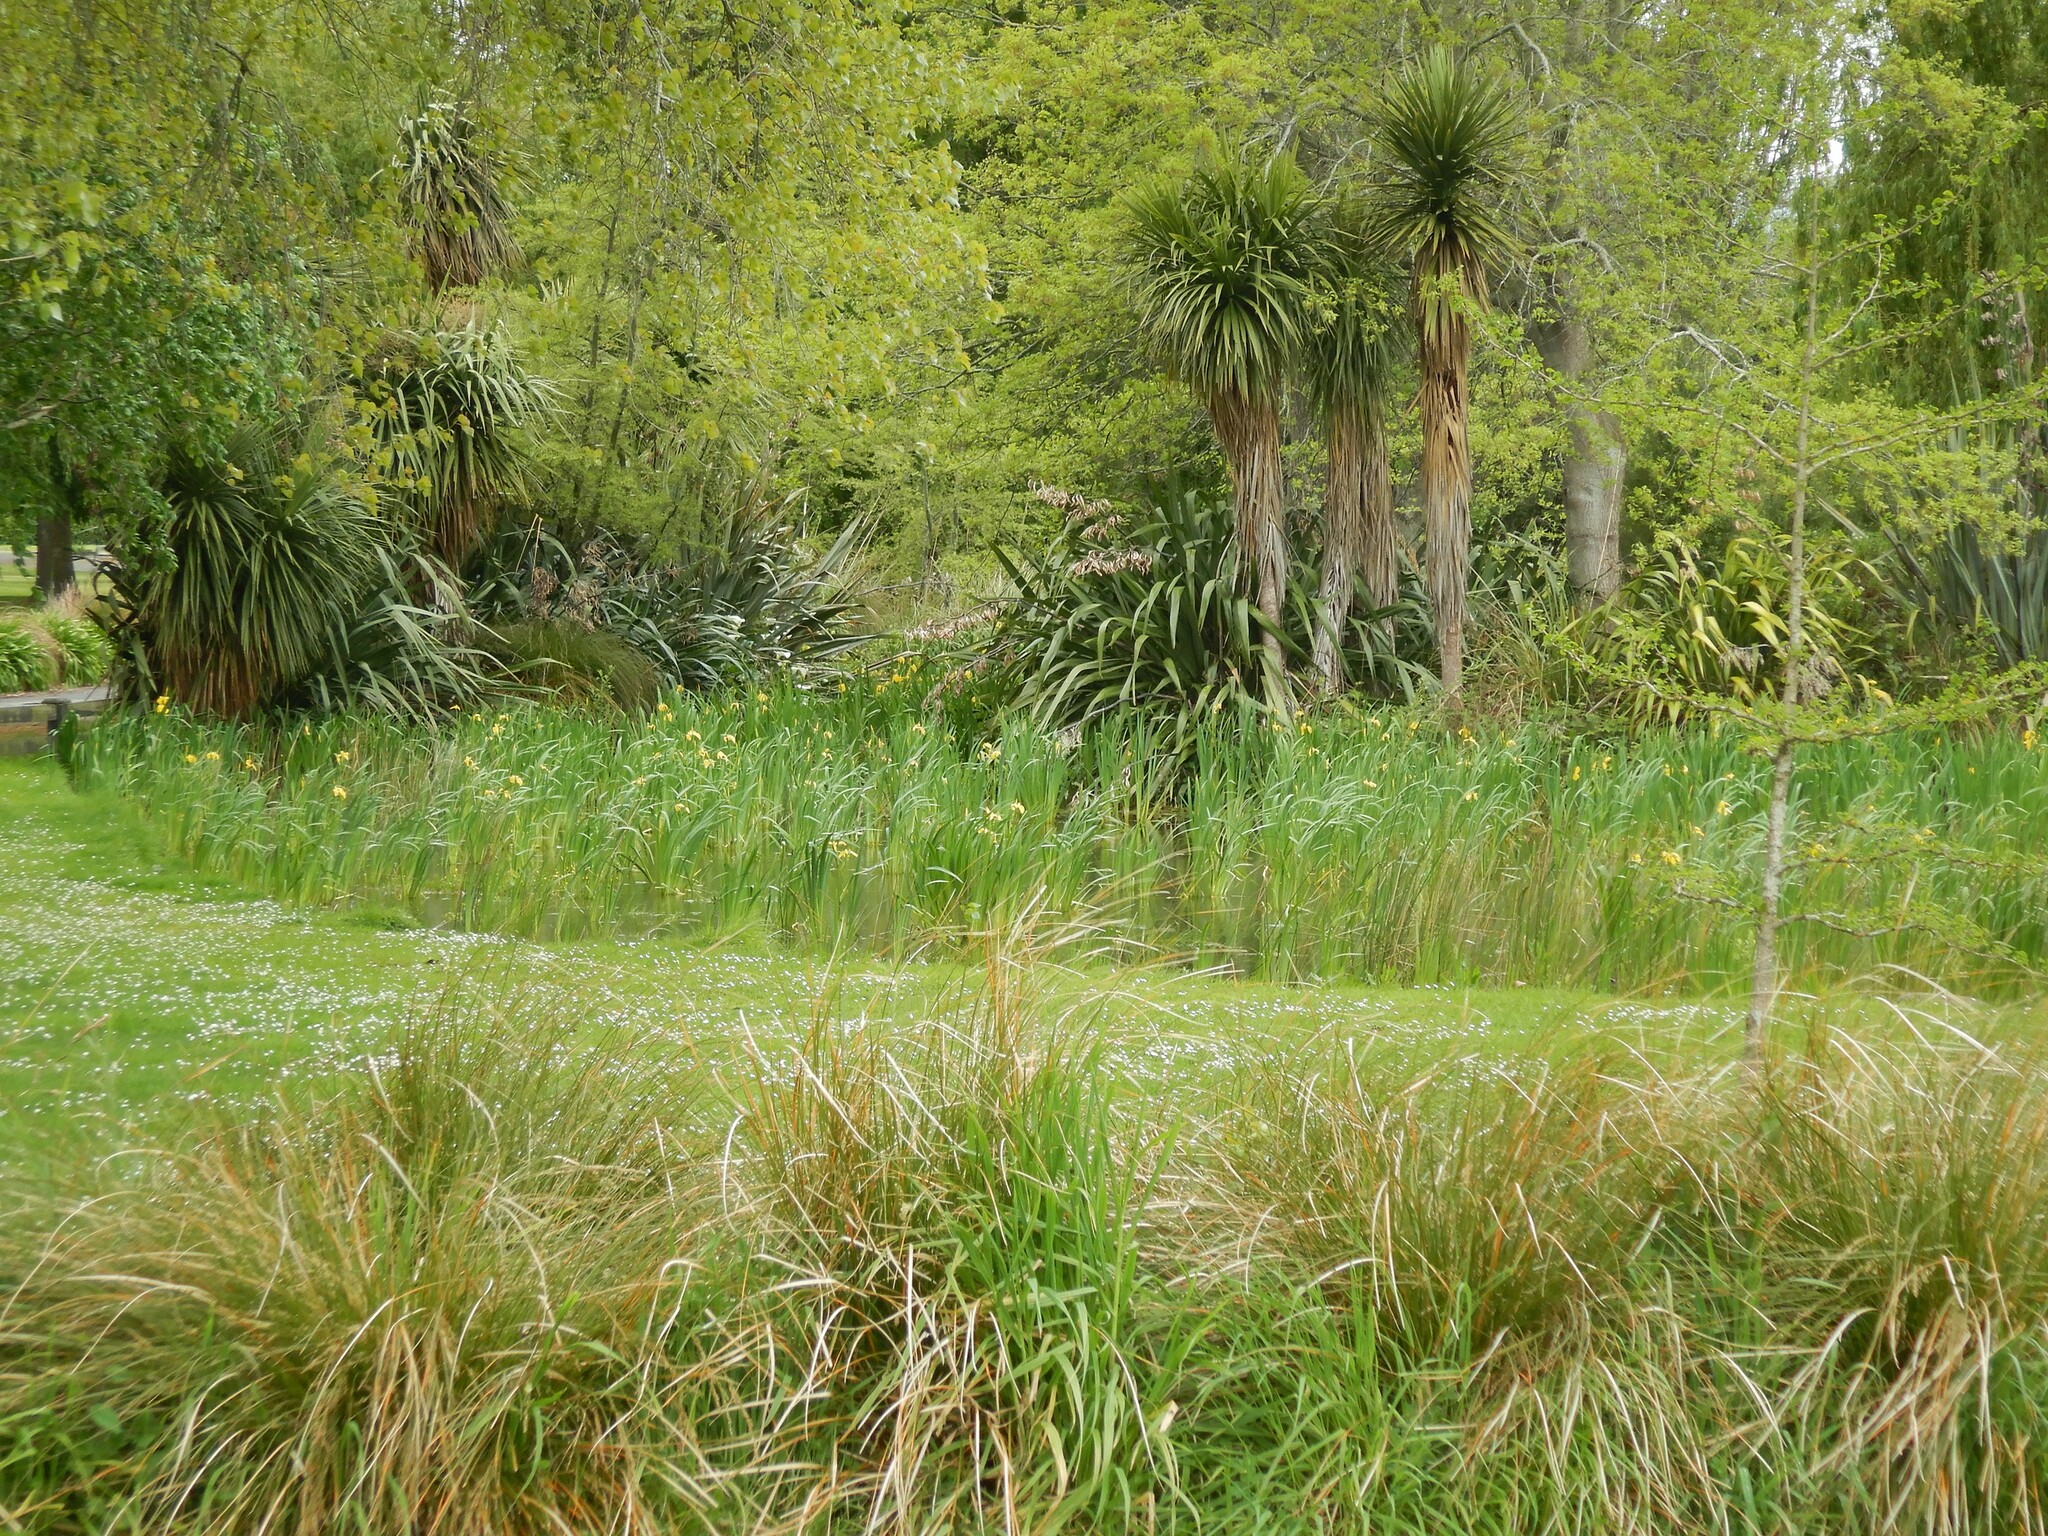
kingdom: Plantae
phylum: Tracheophyta
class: Liliopsida
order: Asparagales
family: Iridaceae
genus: Iris
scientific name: Iris pseudacorus
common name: Yellow flag
